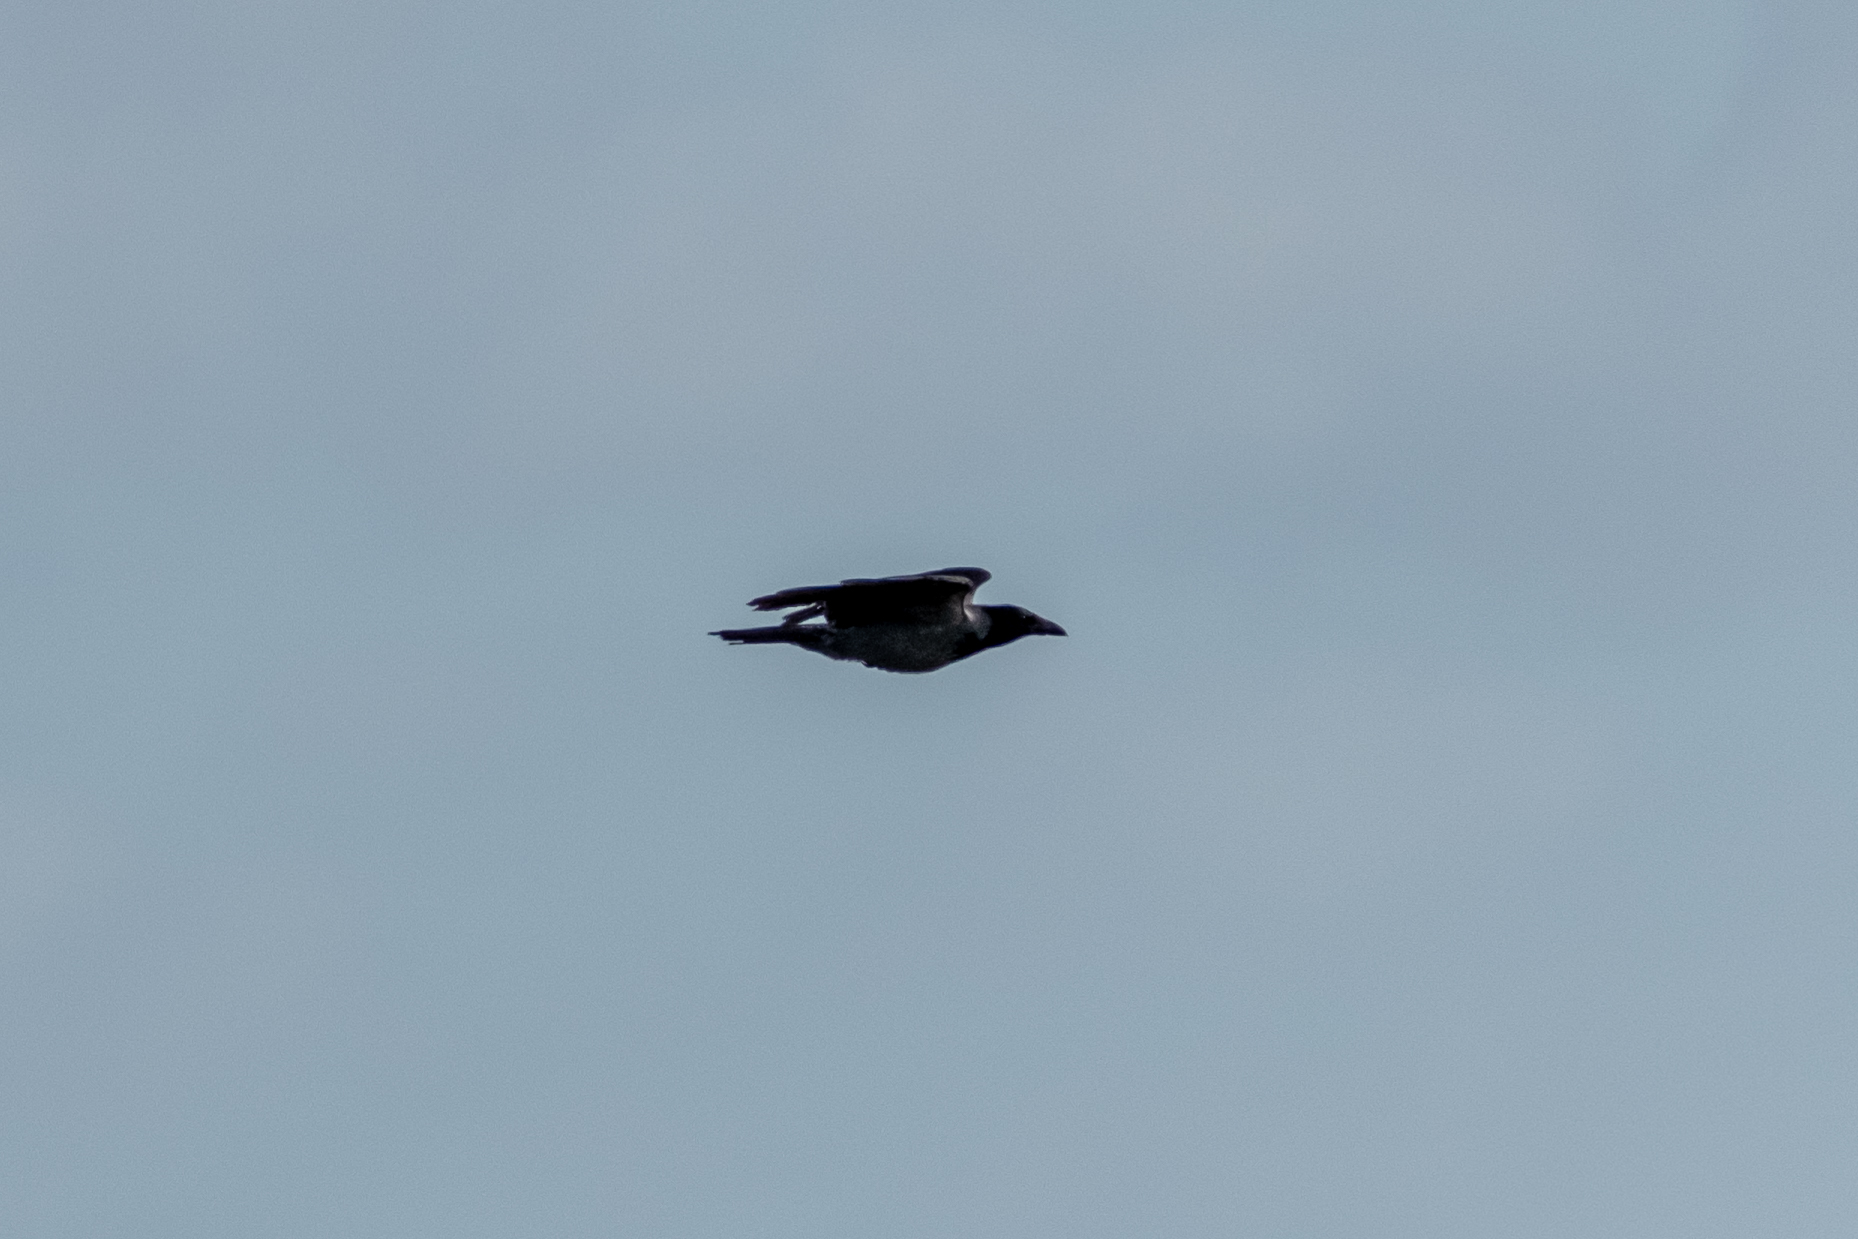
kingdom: Animalia
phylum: Chordata
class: Aves
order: Passeriformes
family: Corvidae
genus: Corvus
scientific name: Corvus cornix
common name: Hooded crow
